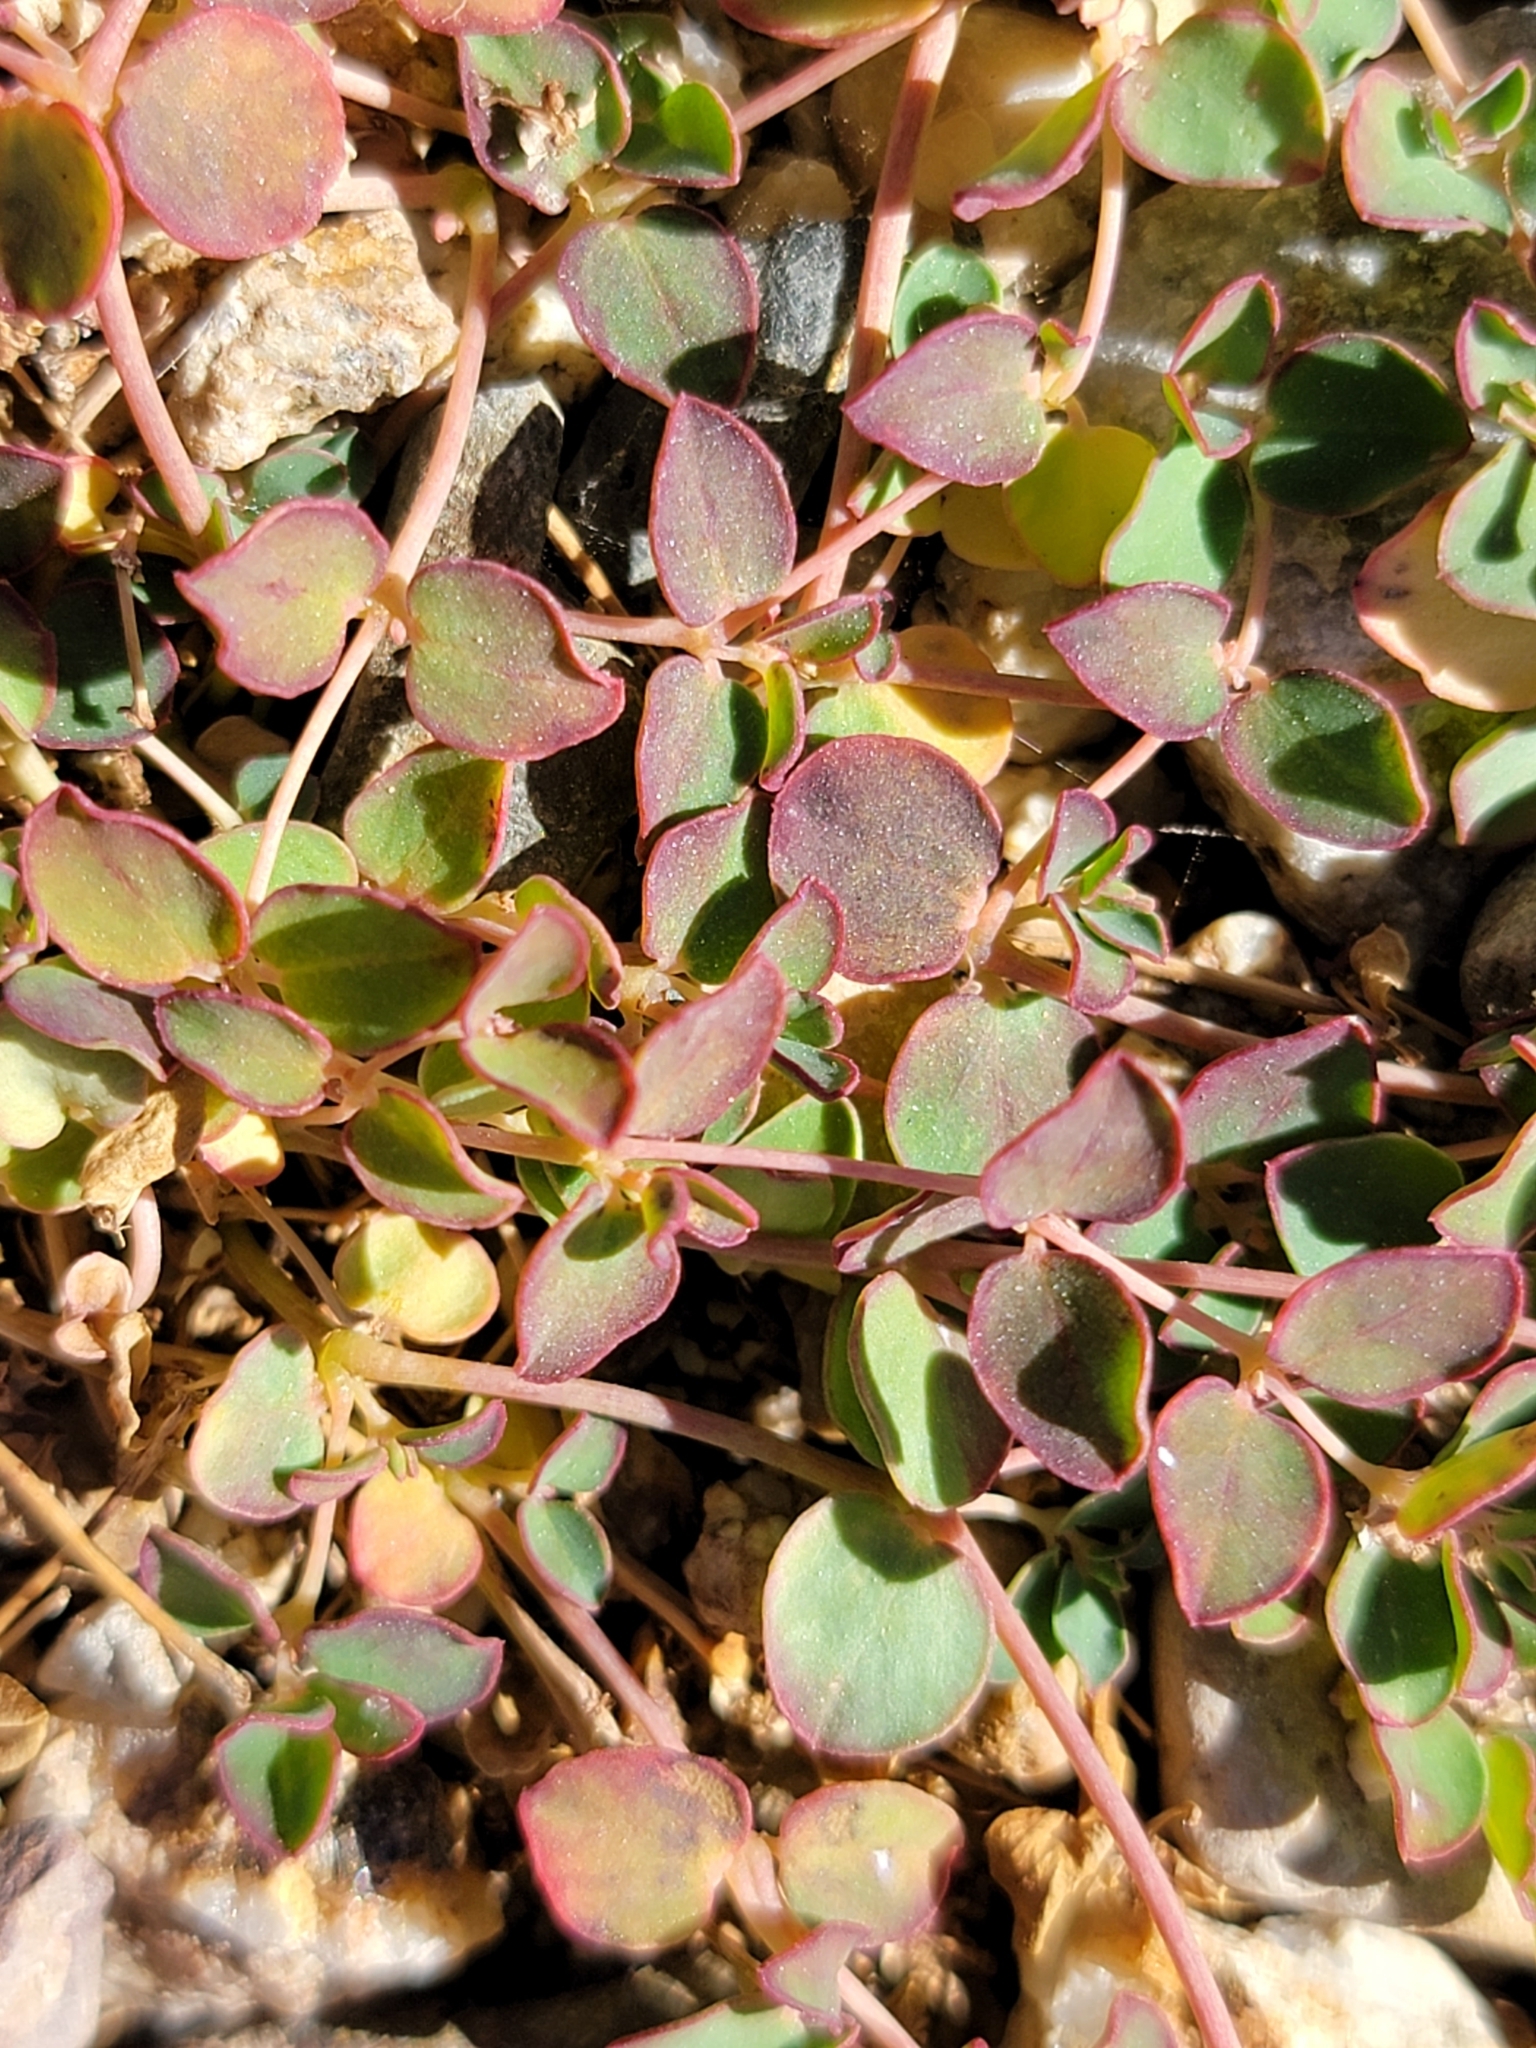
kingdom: Plantae
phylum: Tracheophyta
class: Magnoliopsida
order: Malpighiales
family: Euphorbiaceae
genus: Euphorbia
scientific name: Euphorbia albomarginata
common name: Whitemargin sandmat
